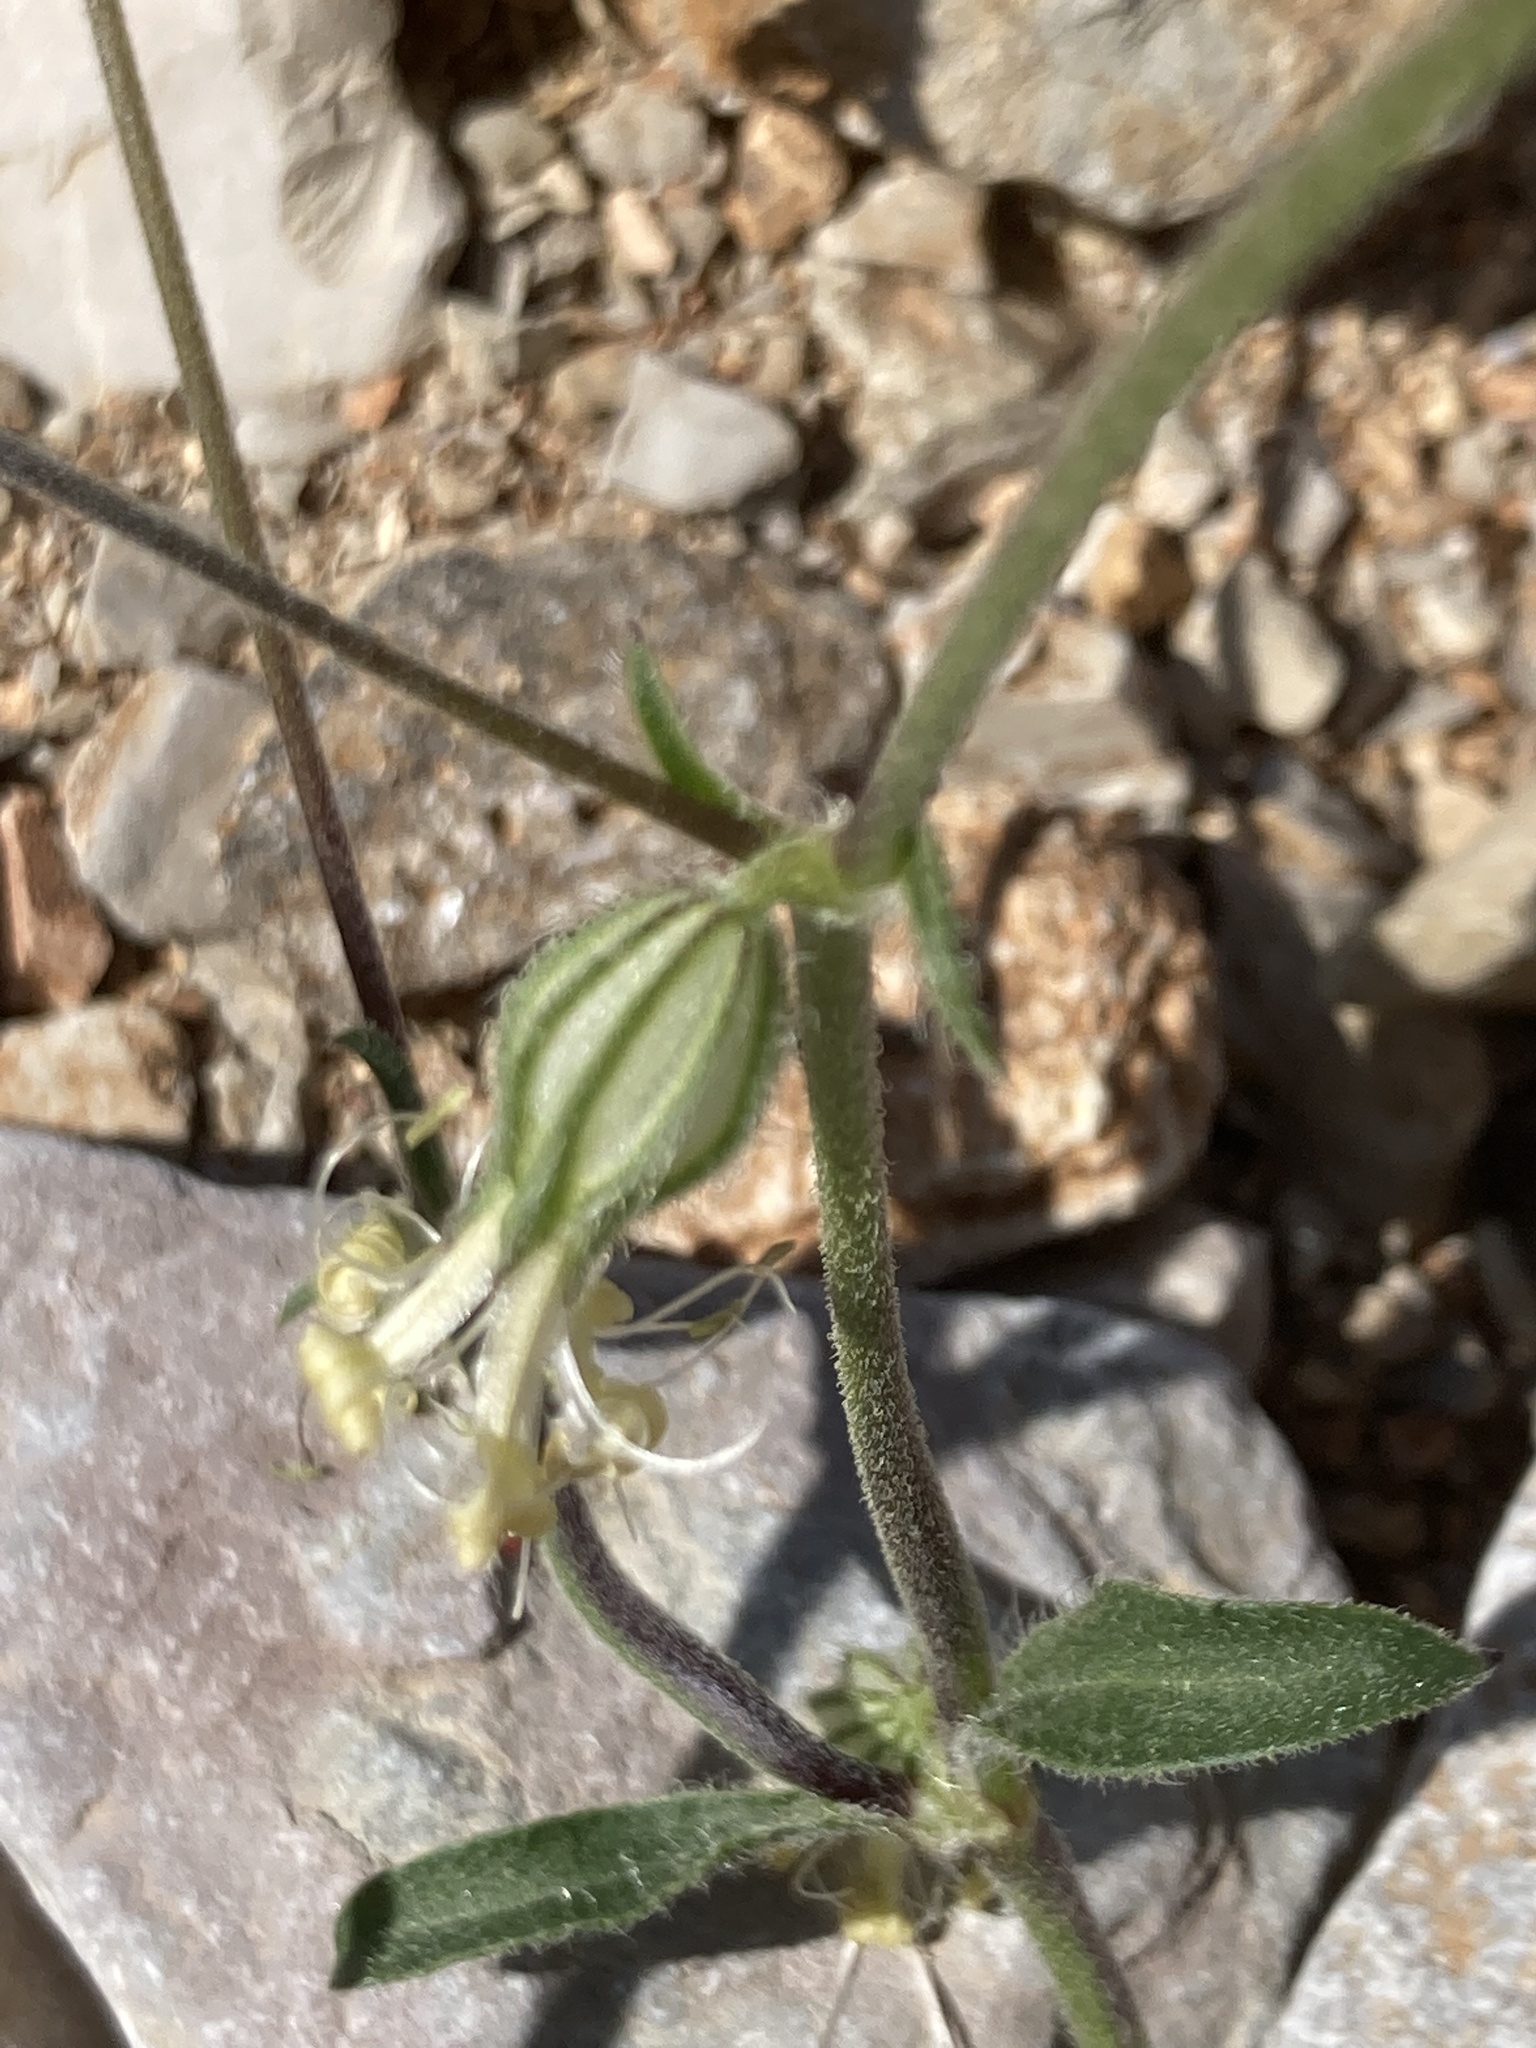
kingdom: Plantae
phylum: Tracheophyta
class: Magnoliopsida
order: Caryophyllales
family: Caryophyllaceae
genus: Silene
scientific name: Silene dichotoma
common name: Forked catchfly
